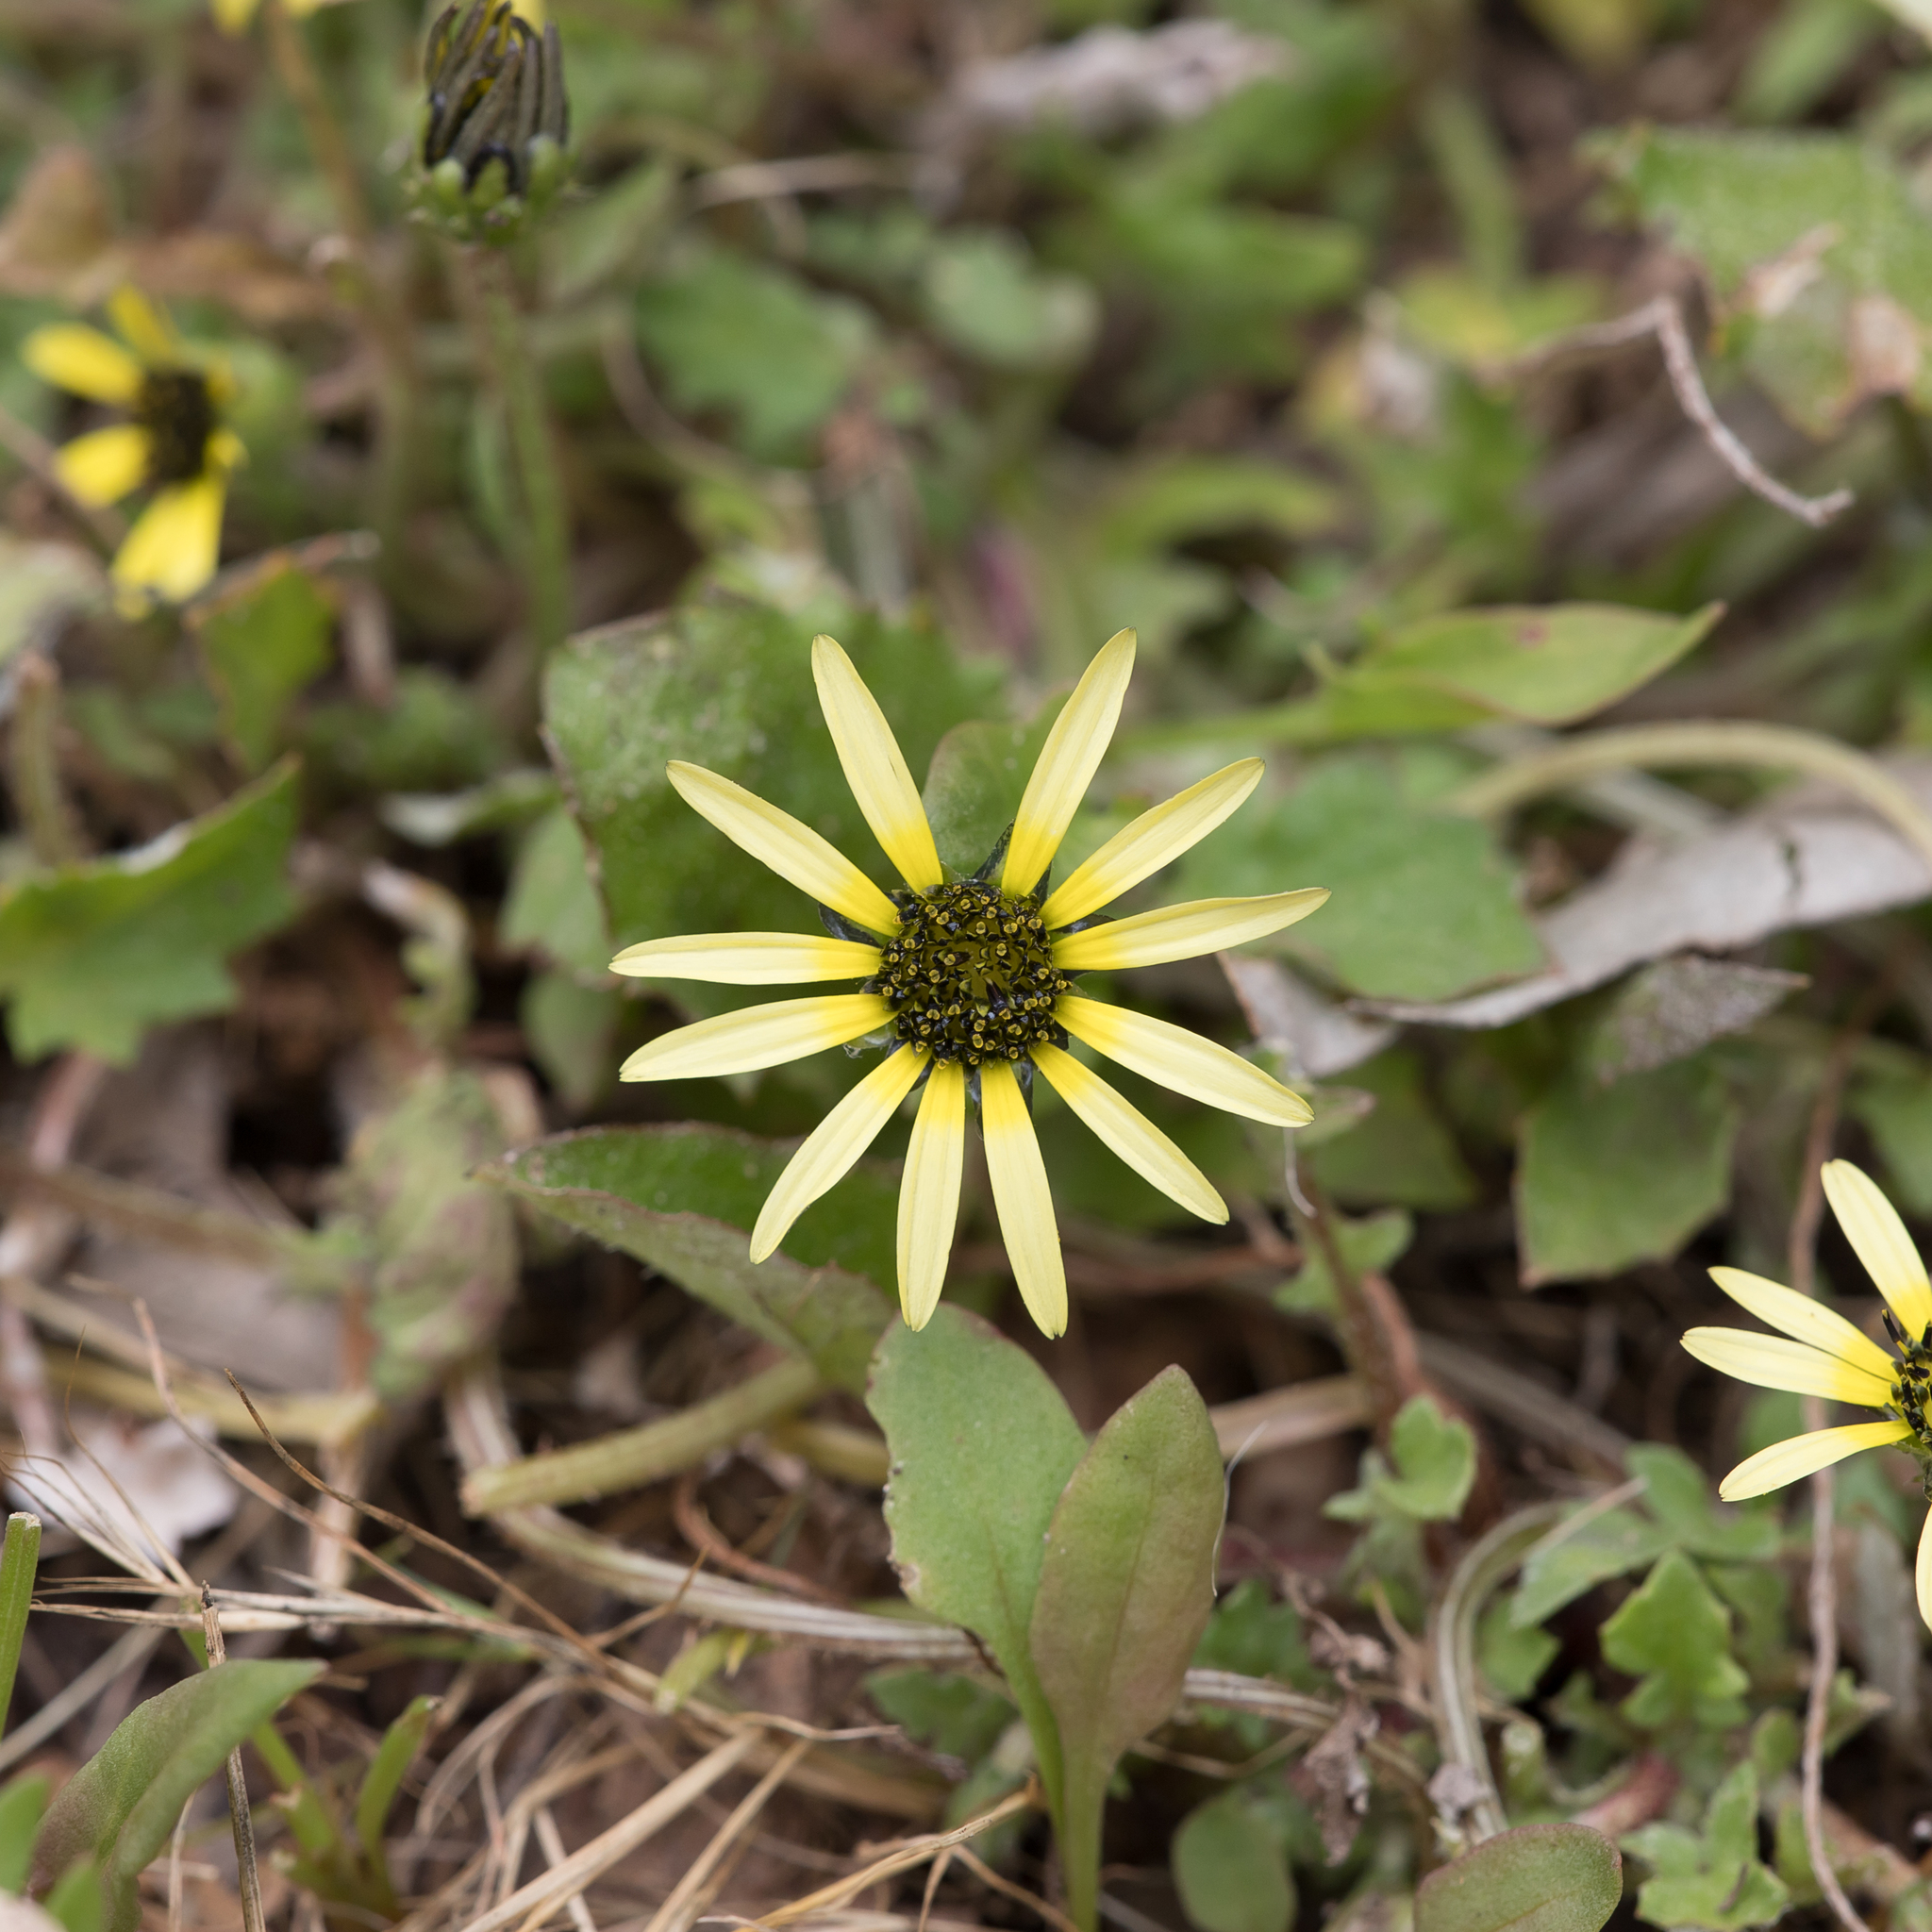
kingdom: Plantae
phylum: Tracheophyta
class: Magnoliopsida
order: Asterales
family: Asteraceae
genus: Arctotheca
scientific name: Arctotheca calendula
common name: Capeweed
